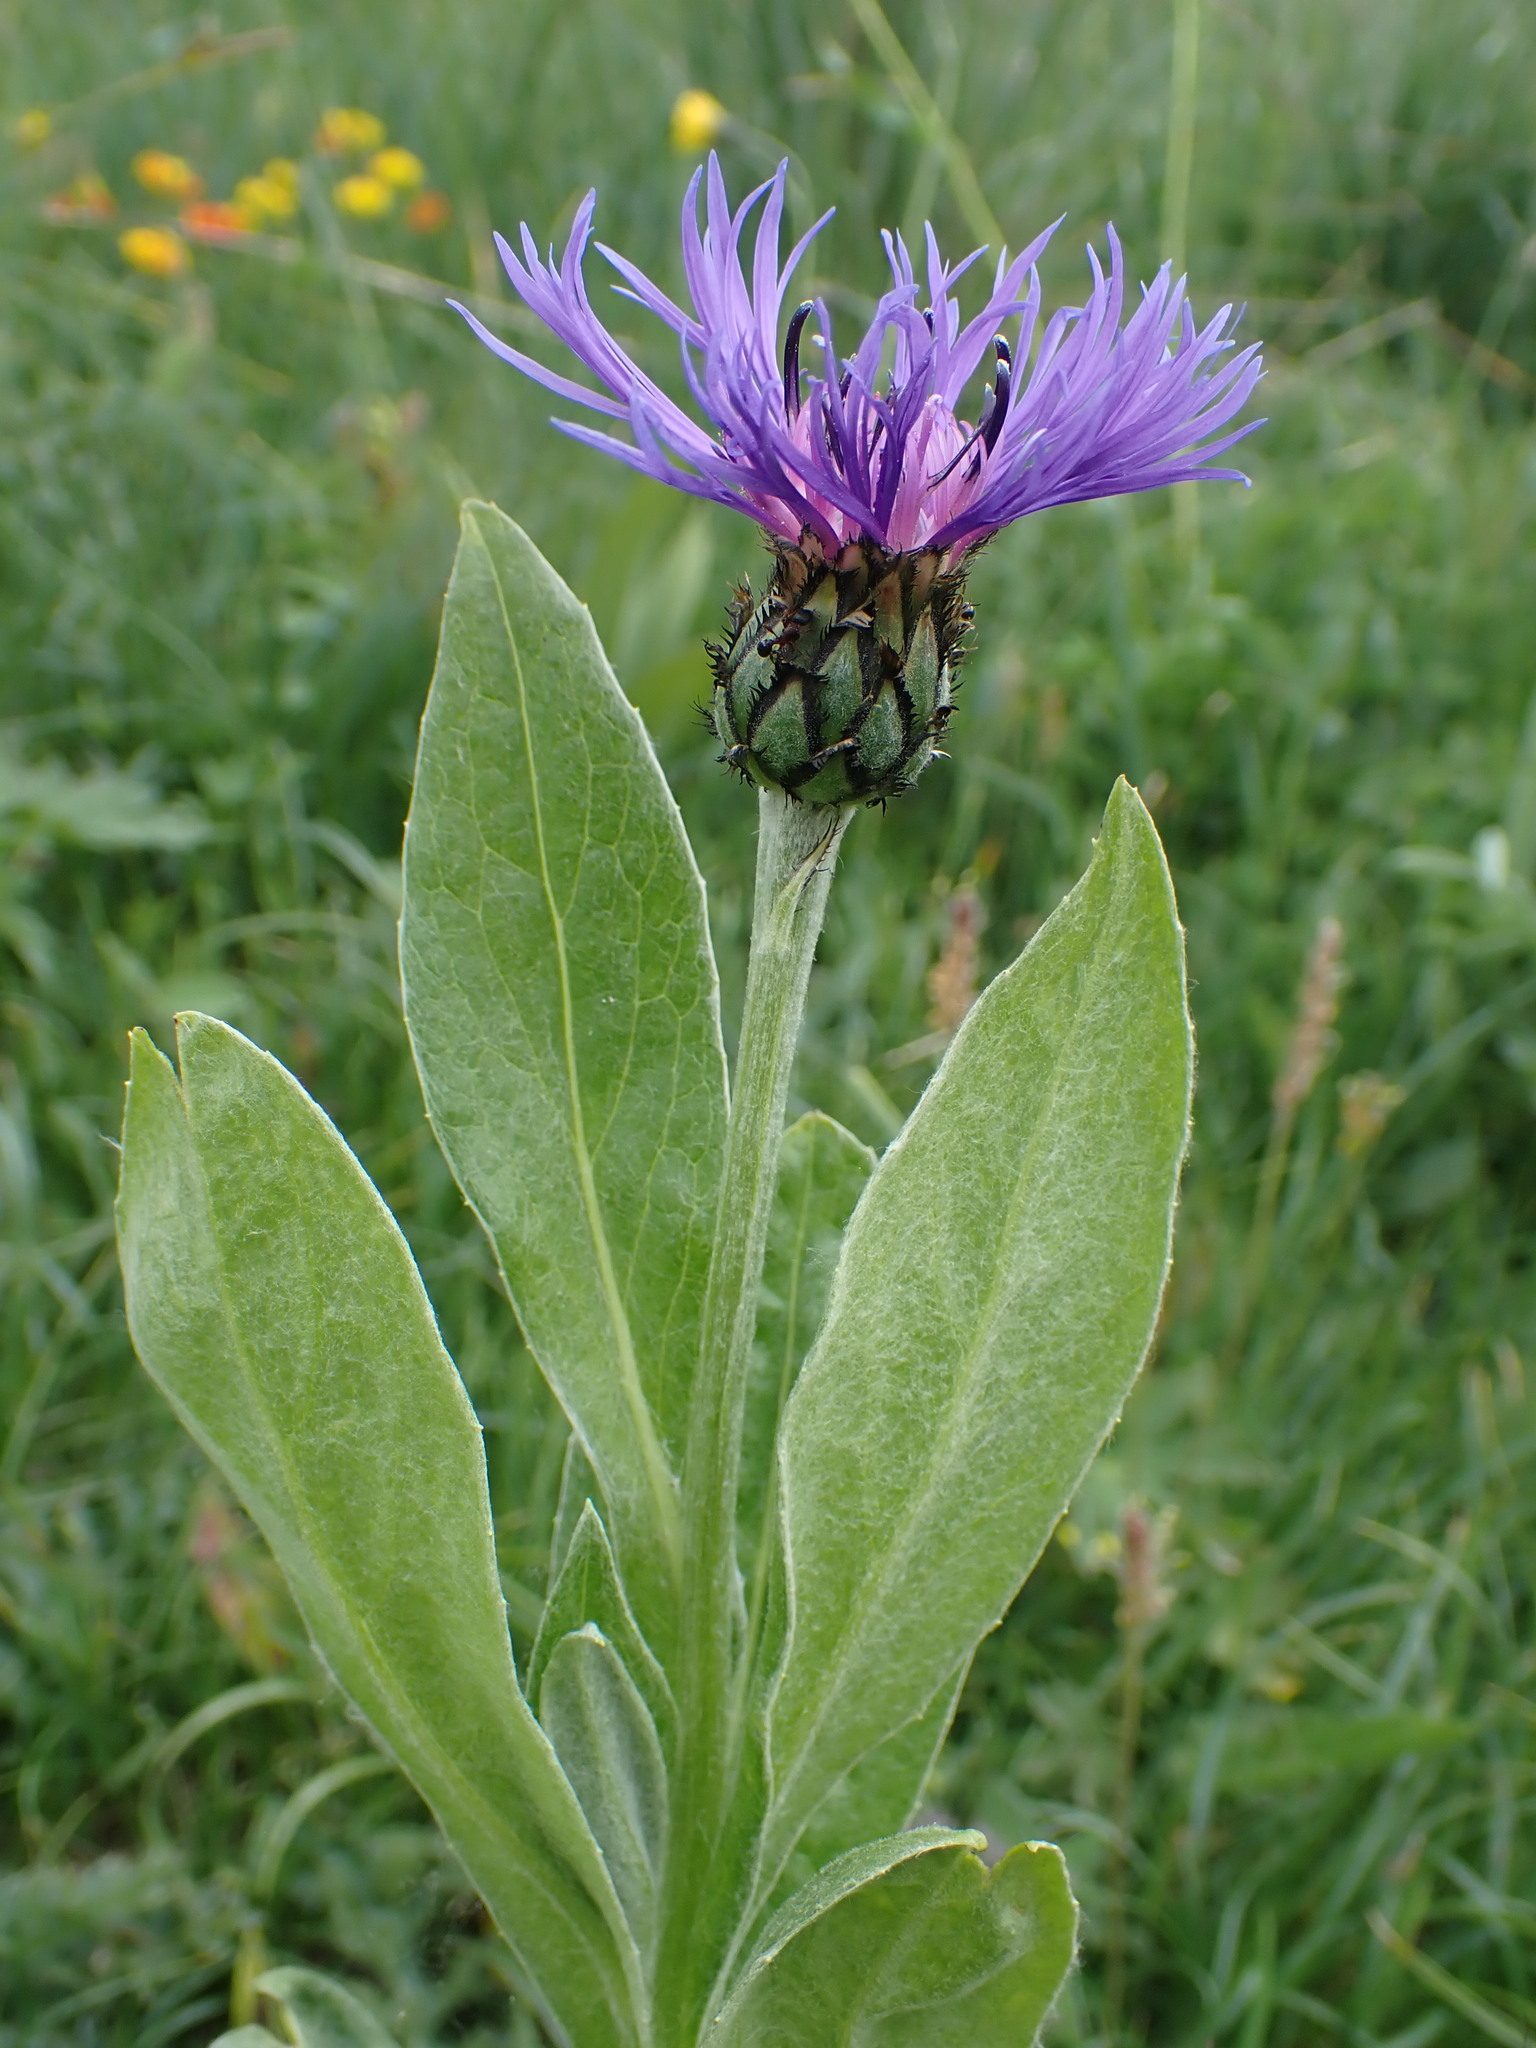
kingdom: Plantae
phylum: Tracheophyta
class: Magnoliopsida
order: Asterales
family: Asteraceae
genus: Centaurea
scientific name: Centaurea montana
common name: Perennial cornflower
